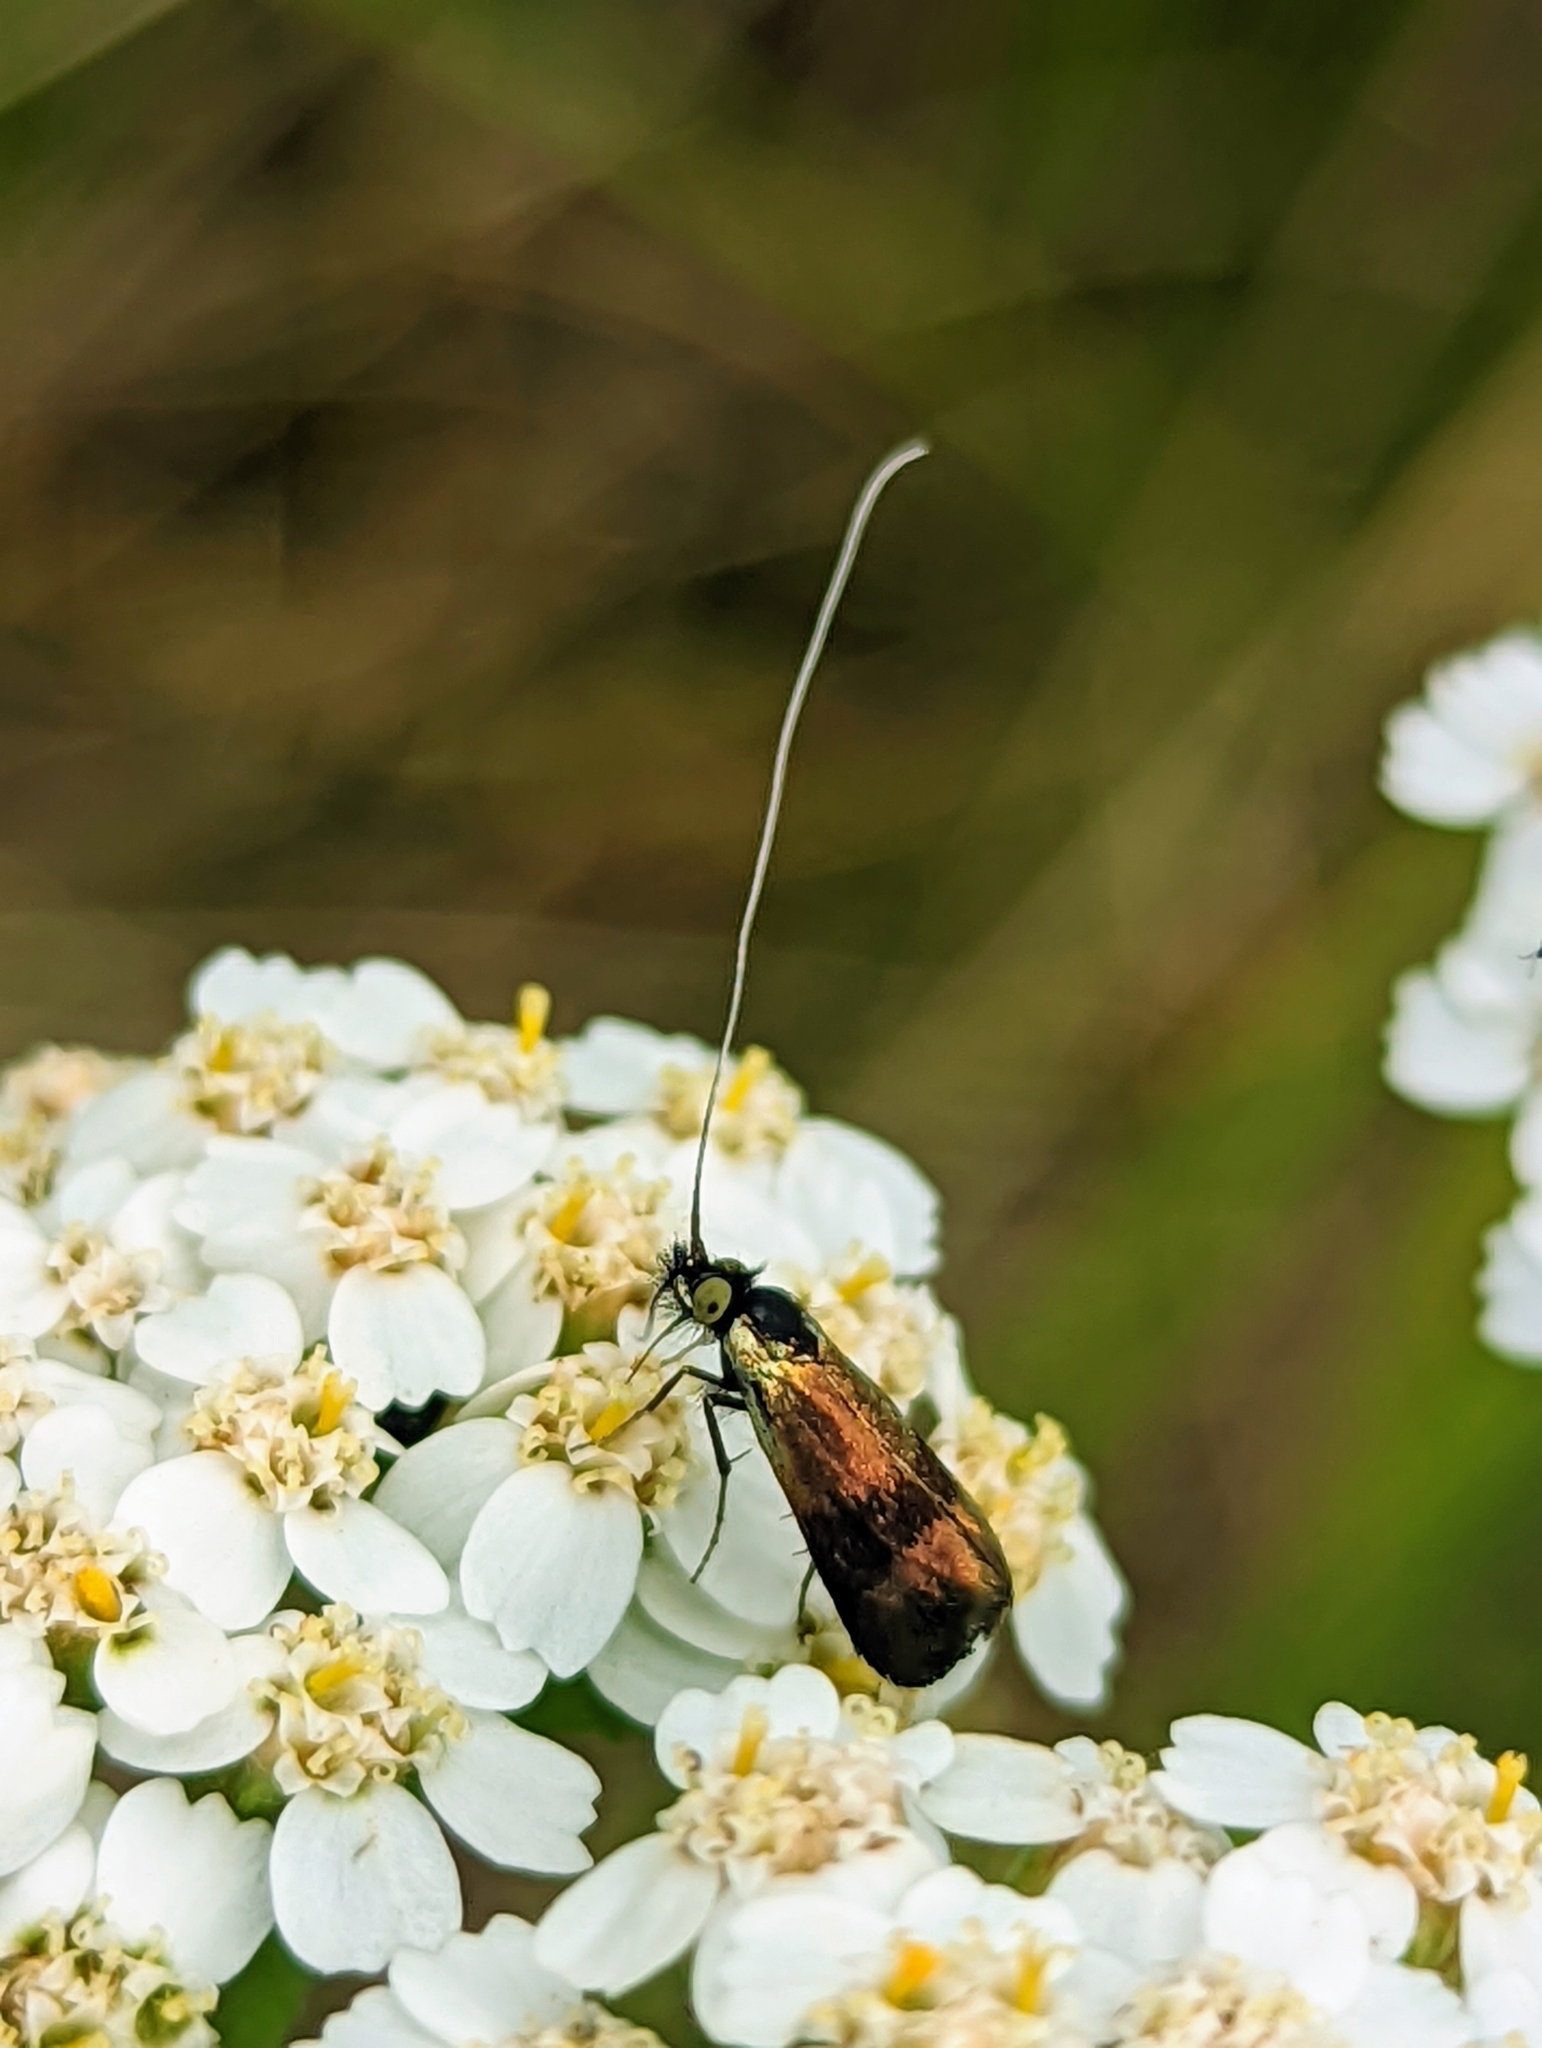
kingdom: Animalia
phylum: Arthropoda
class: Insecta
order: Lepidoptera
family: Adelidae
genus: Nemophora
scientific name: Nemophora fasciella
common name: Horehound long-horn
